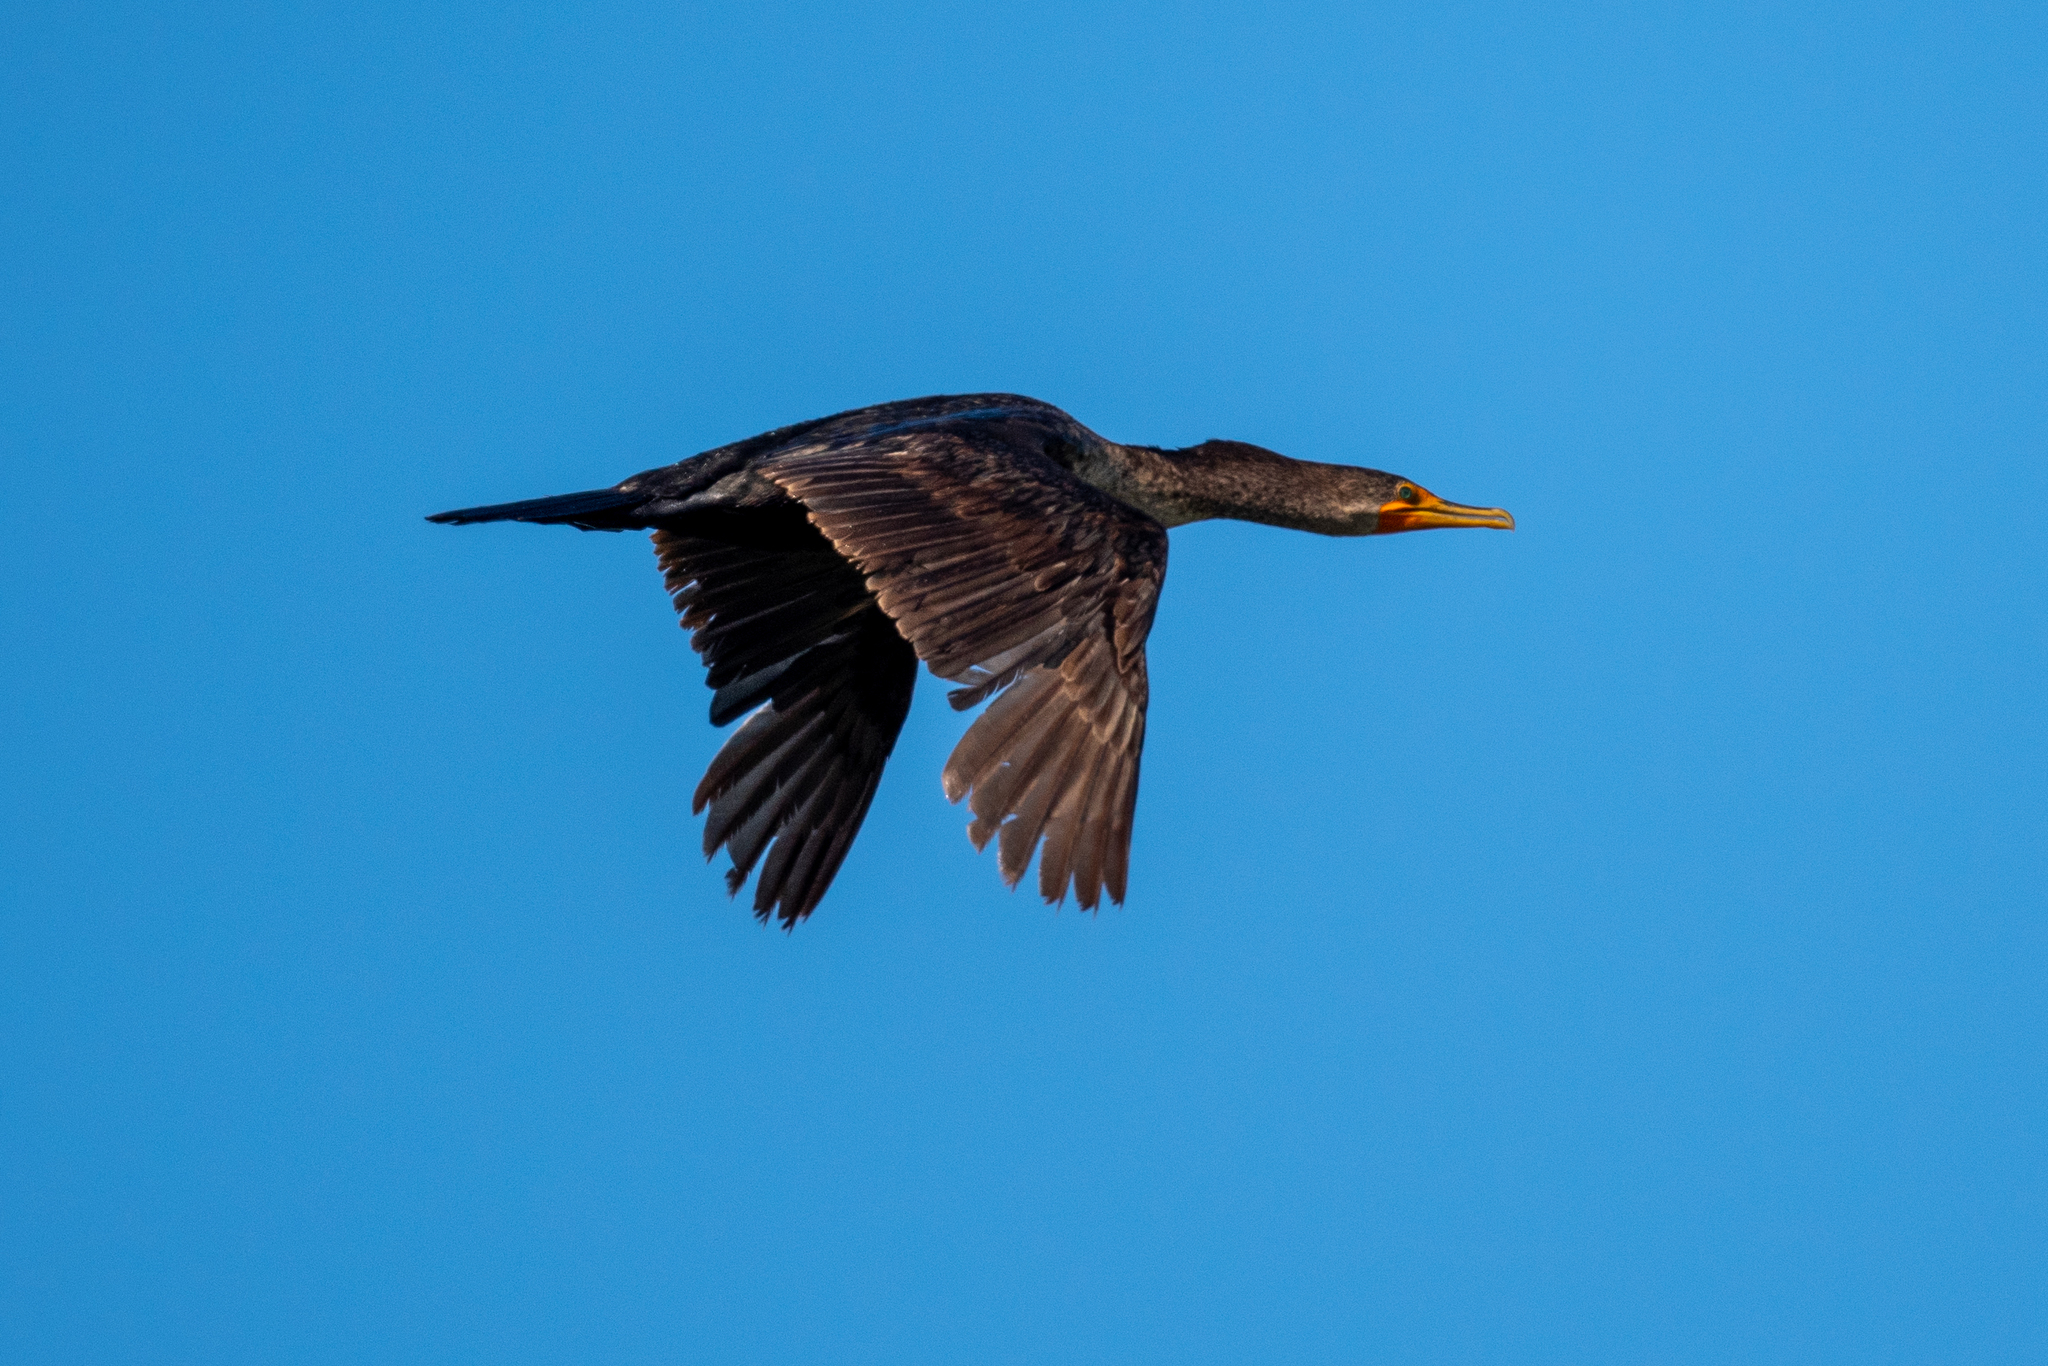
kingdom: Animalia
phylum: Chordata
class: Aves
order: Suliformes
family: Phalacrocoracidae
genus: Phalacrocorax
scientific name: Phalacrocorax auritus
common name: Double-crested cormorant
